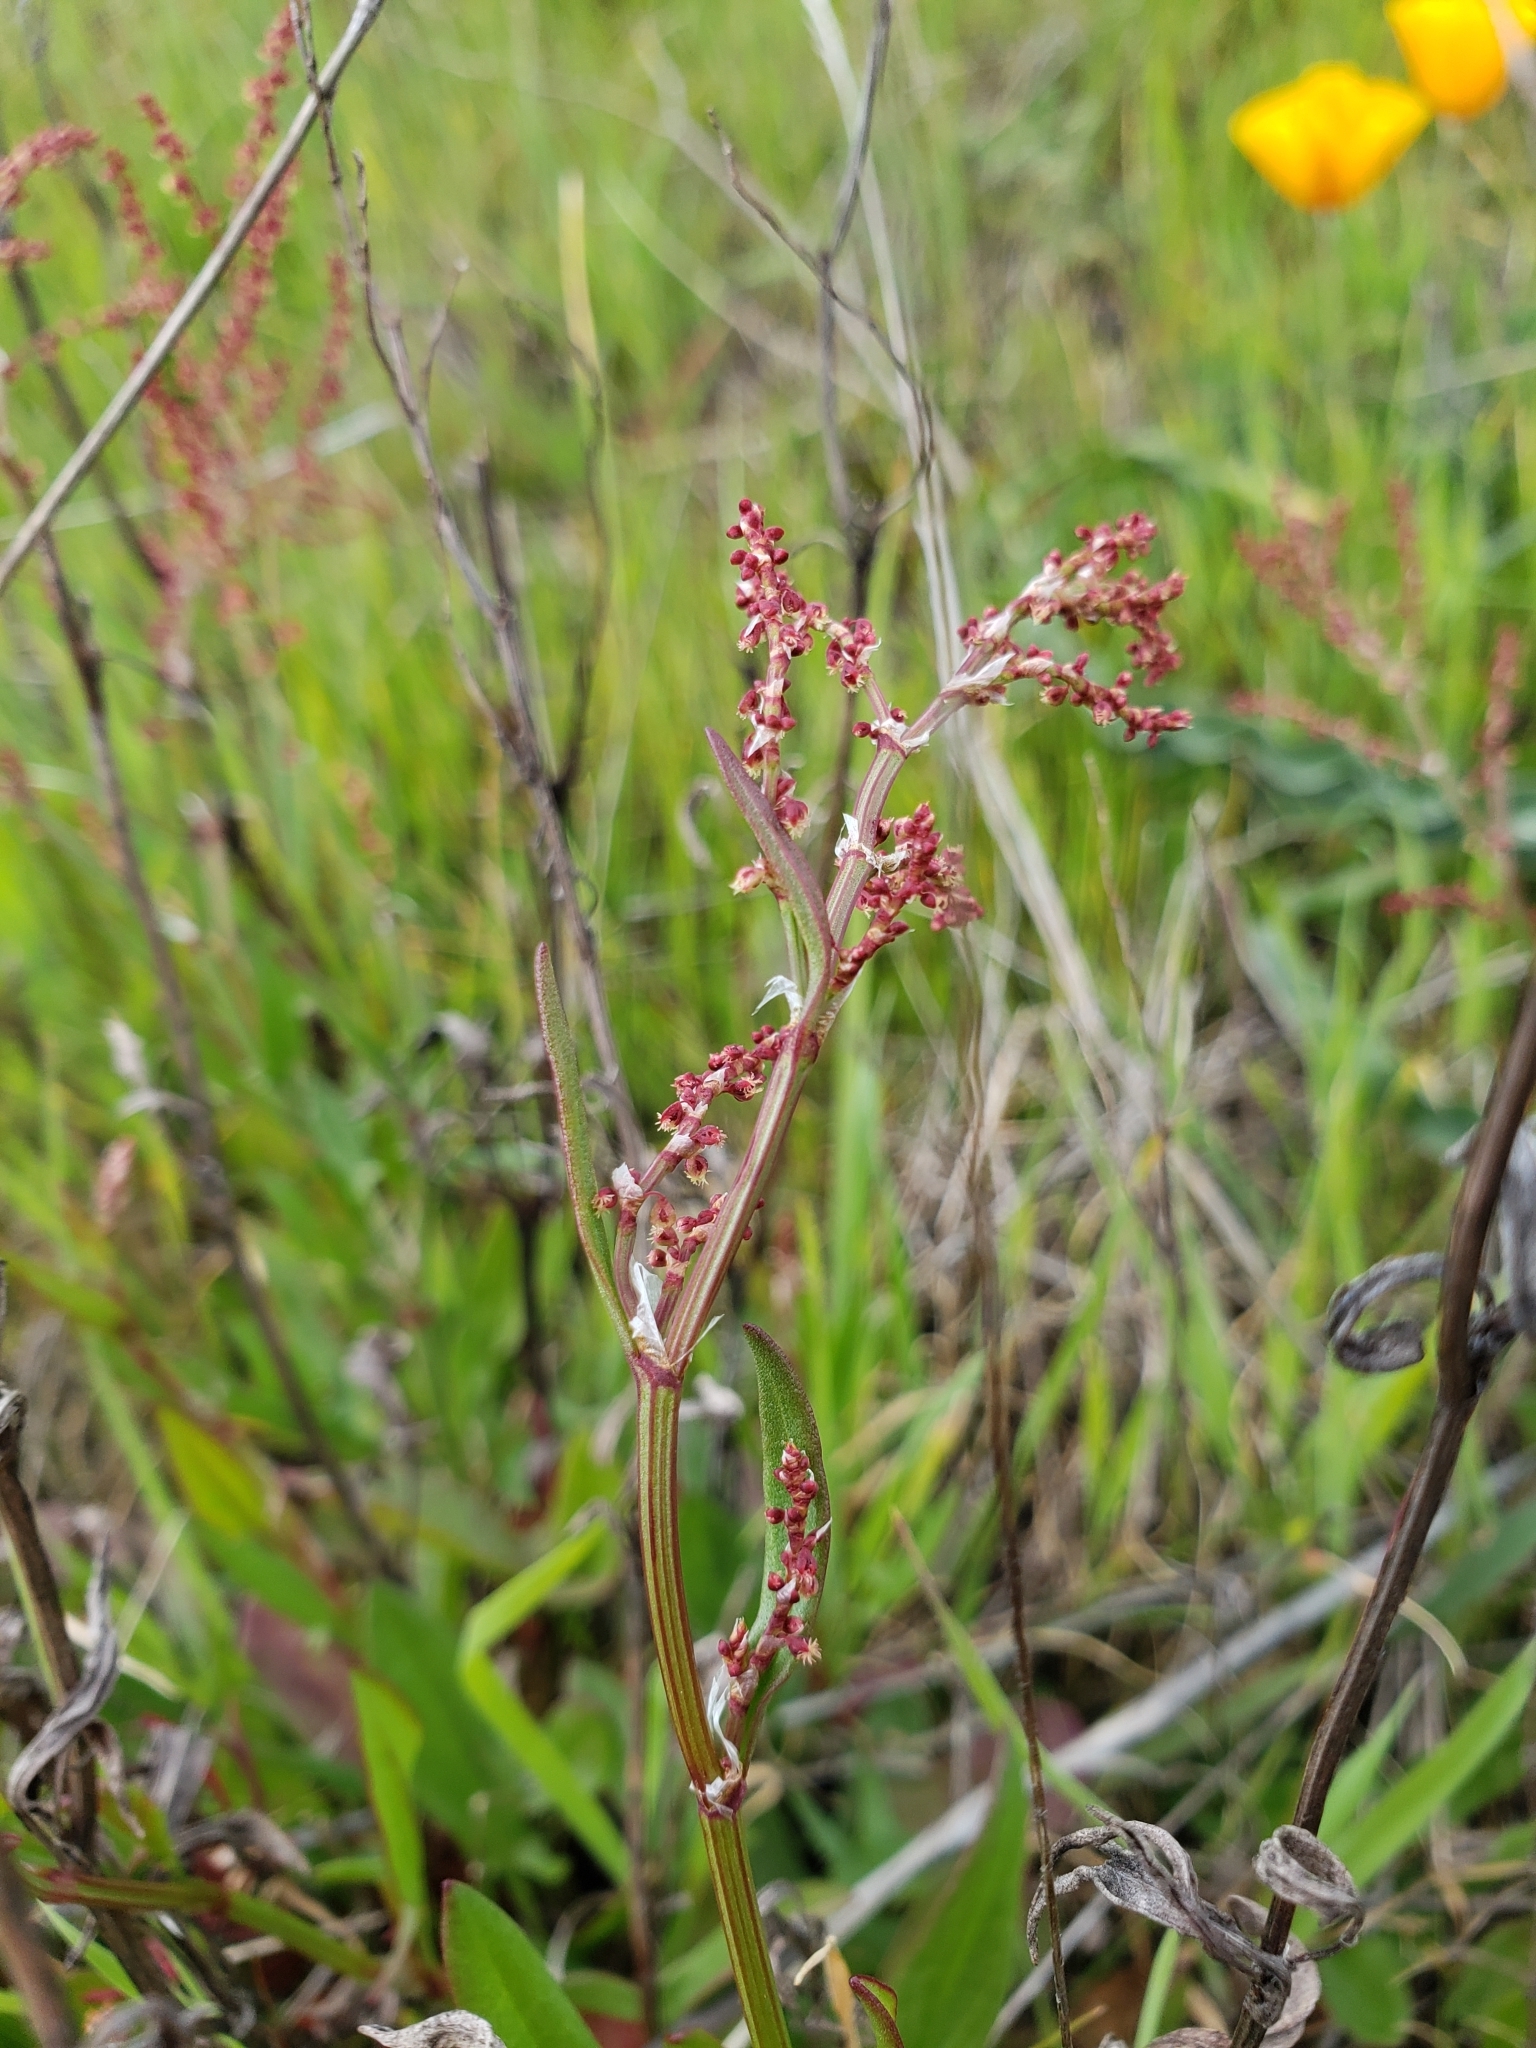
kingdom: Plantae
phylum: Tracheophyta
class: Magnoliopsida
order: Caryophyllales
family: Polygonaceae
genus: Rumex
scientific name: Rumex acetosella
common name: Common sheep sorrel
